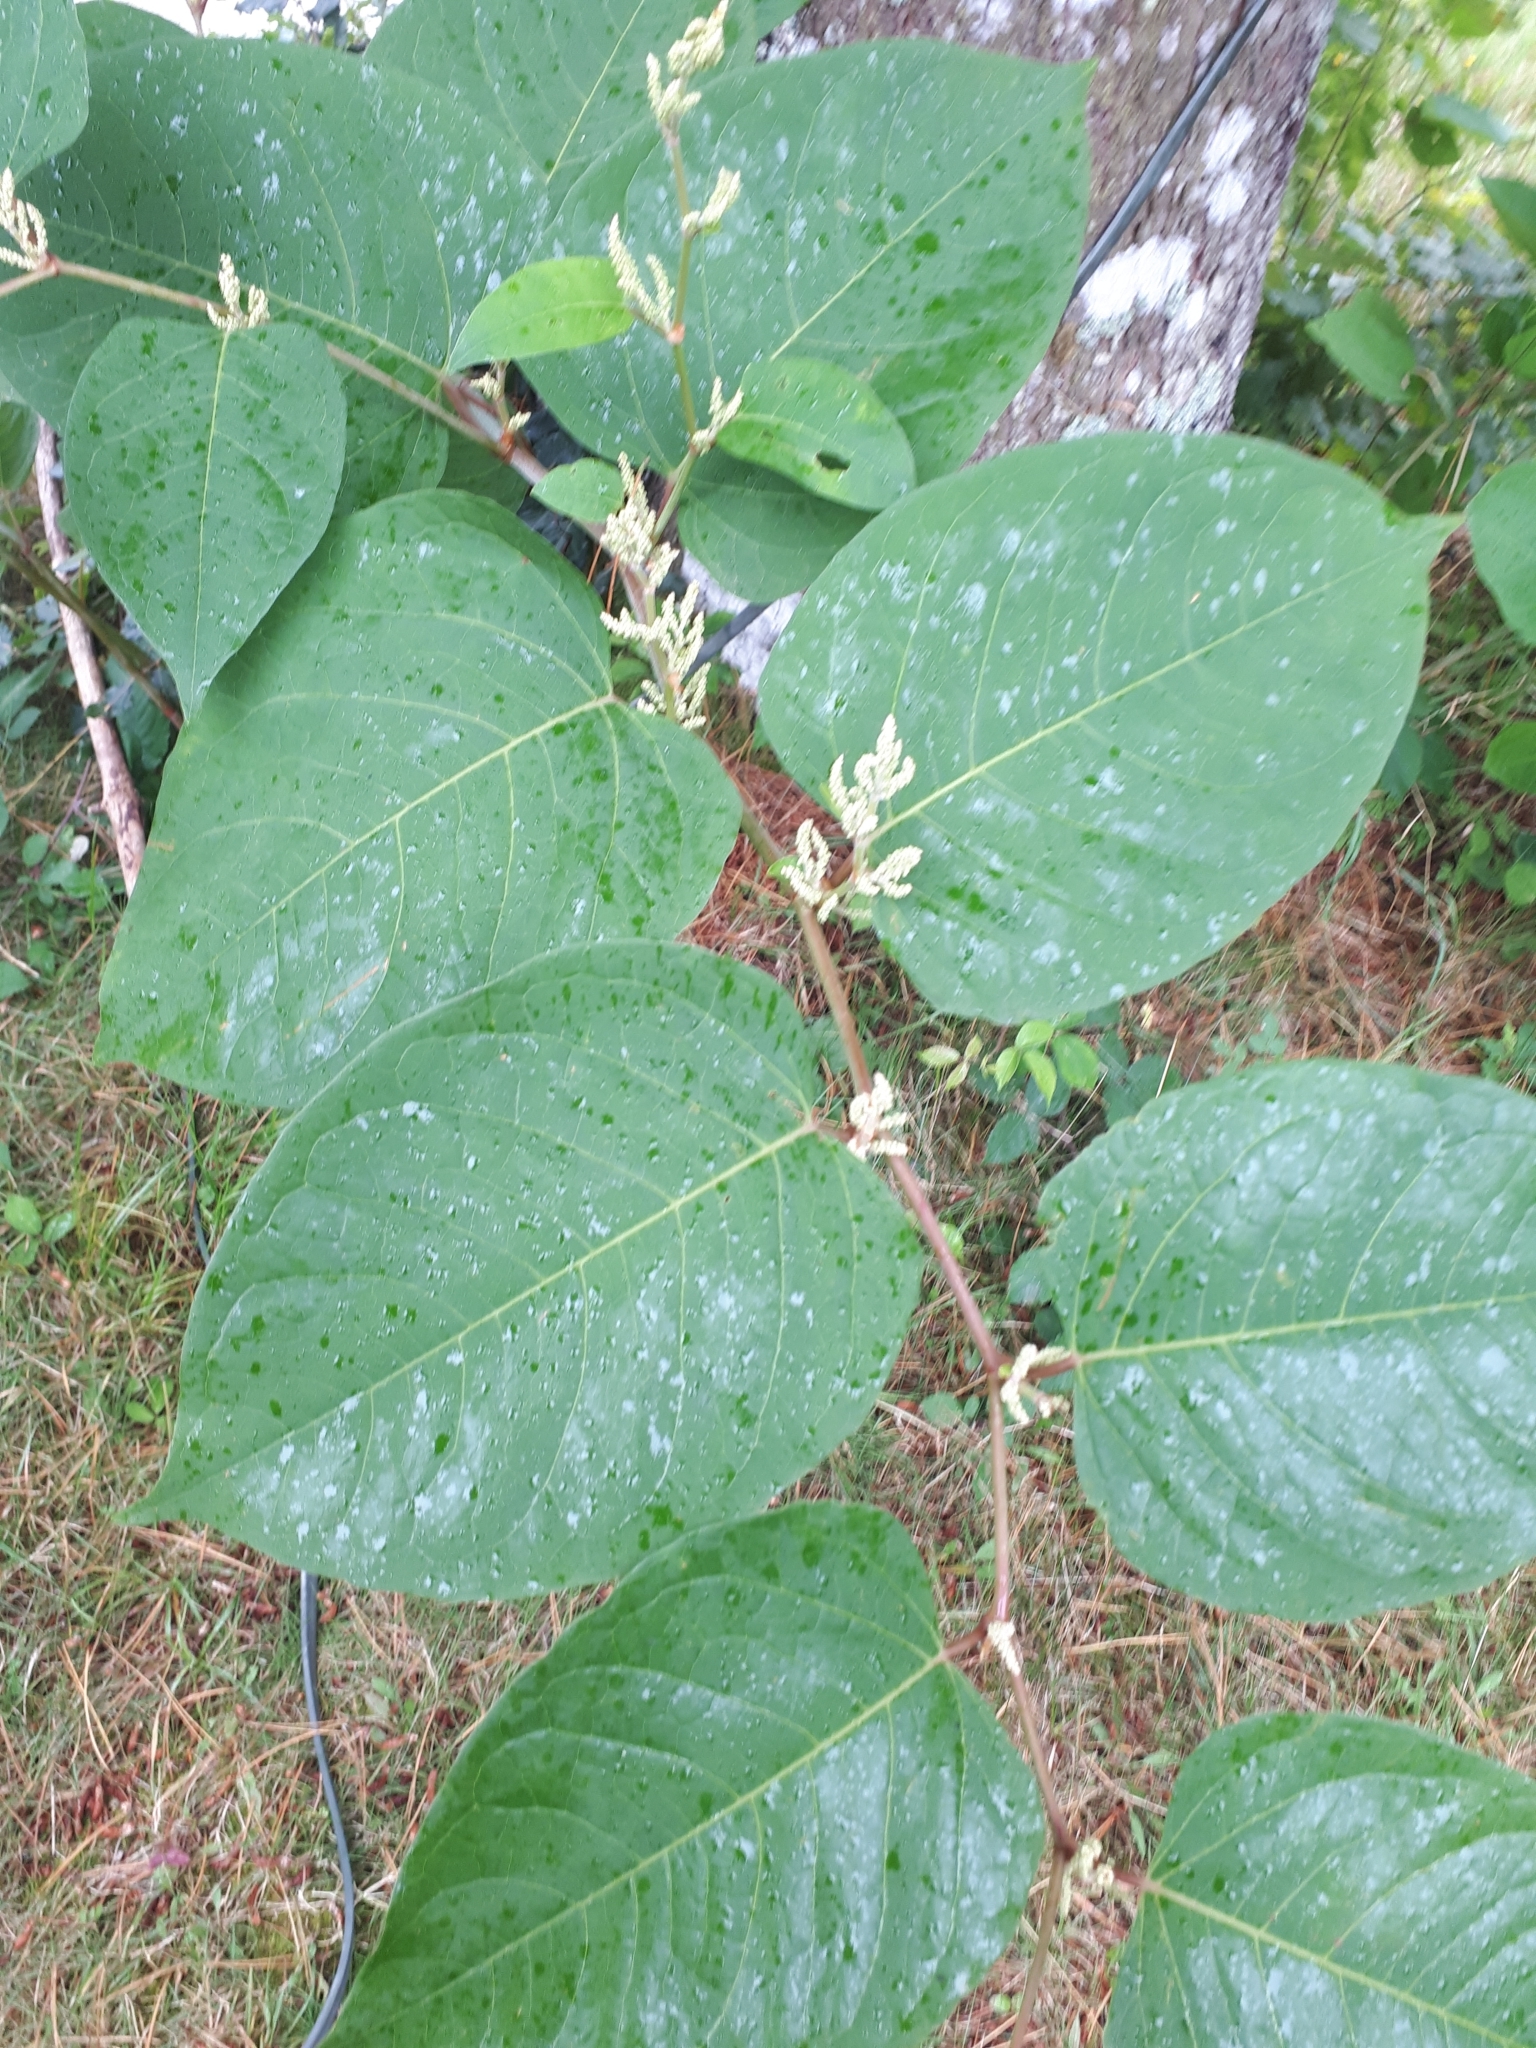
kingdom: Plantae
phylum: Tracheophyta
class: Magnoliopsida
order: Caryophyllales
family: Polygonaceae
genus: Reynoutria
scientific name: Reynoutria japonica
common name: Japanese knotweed
